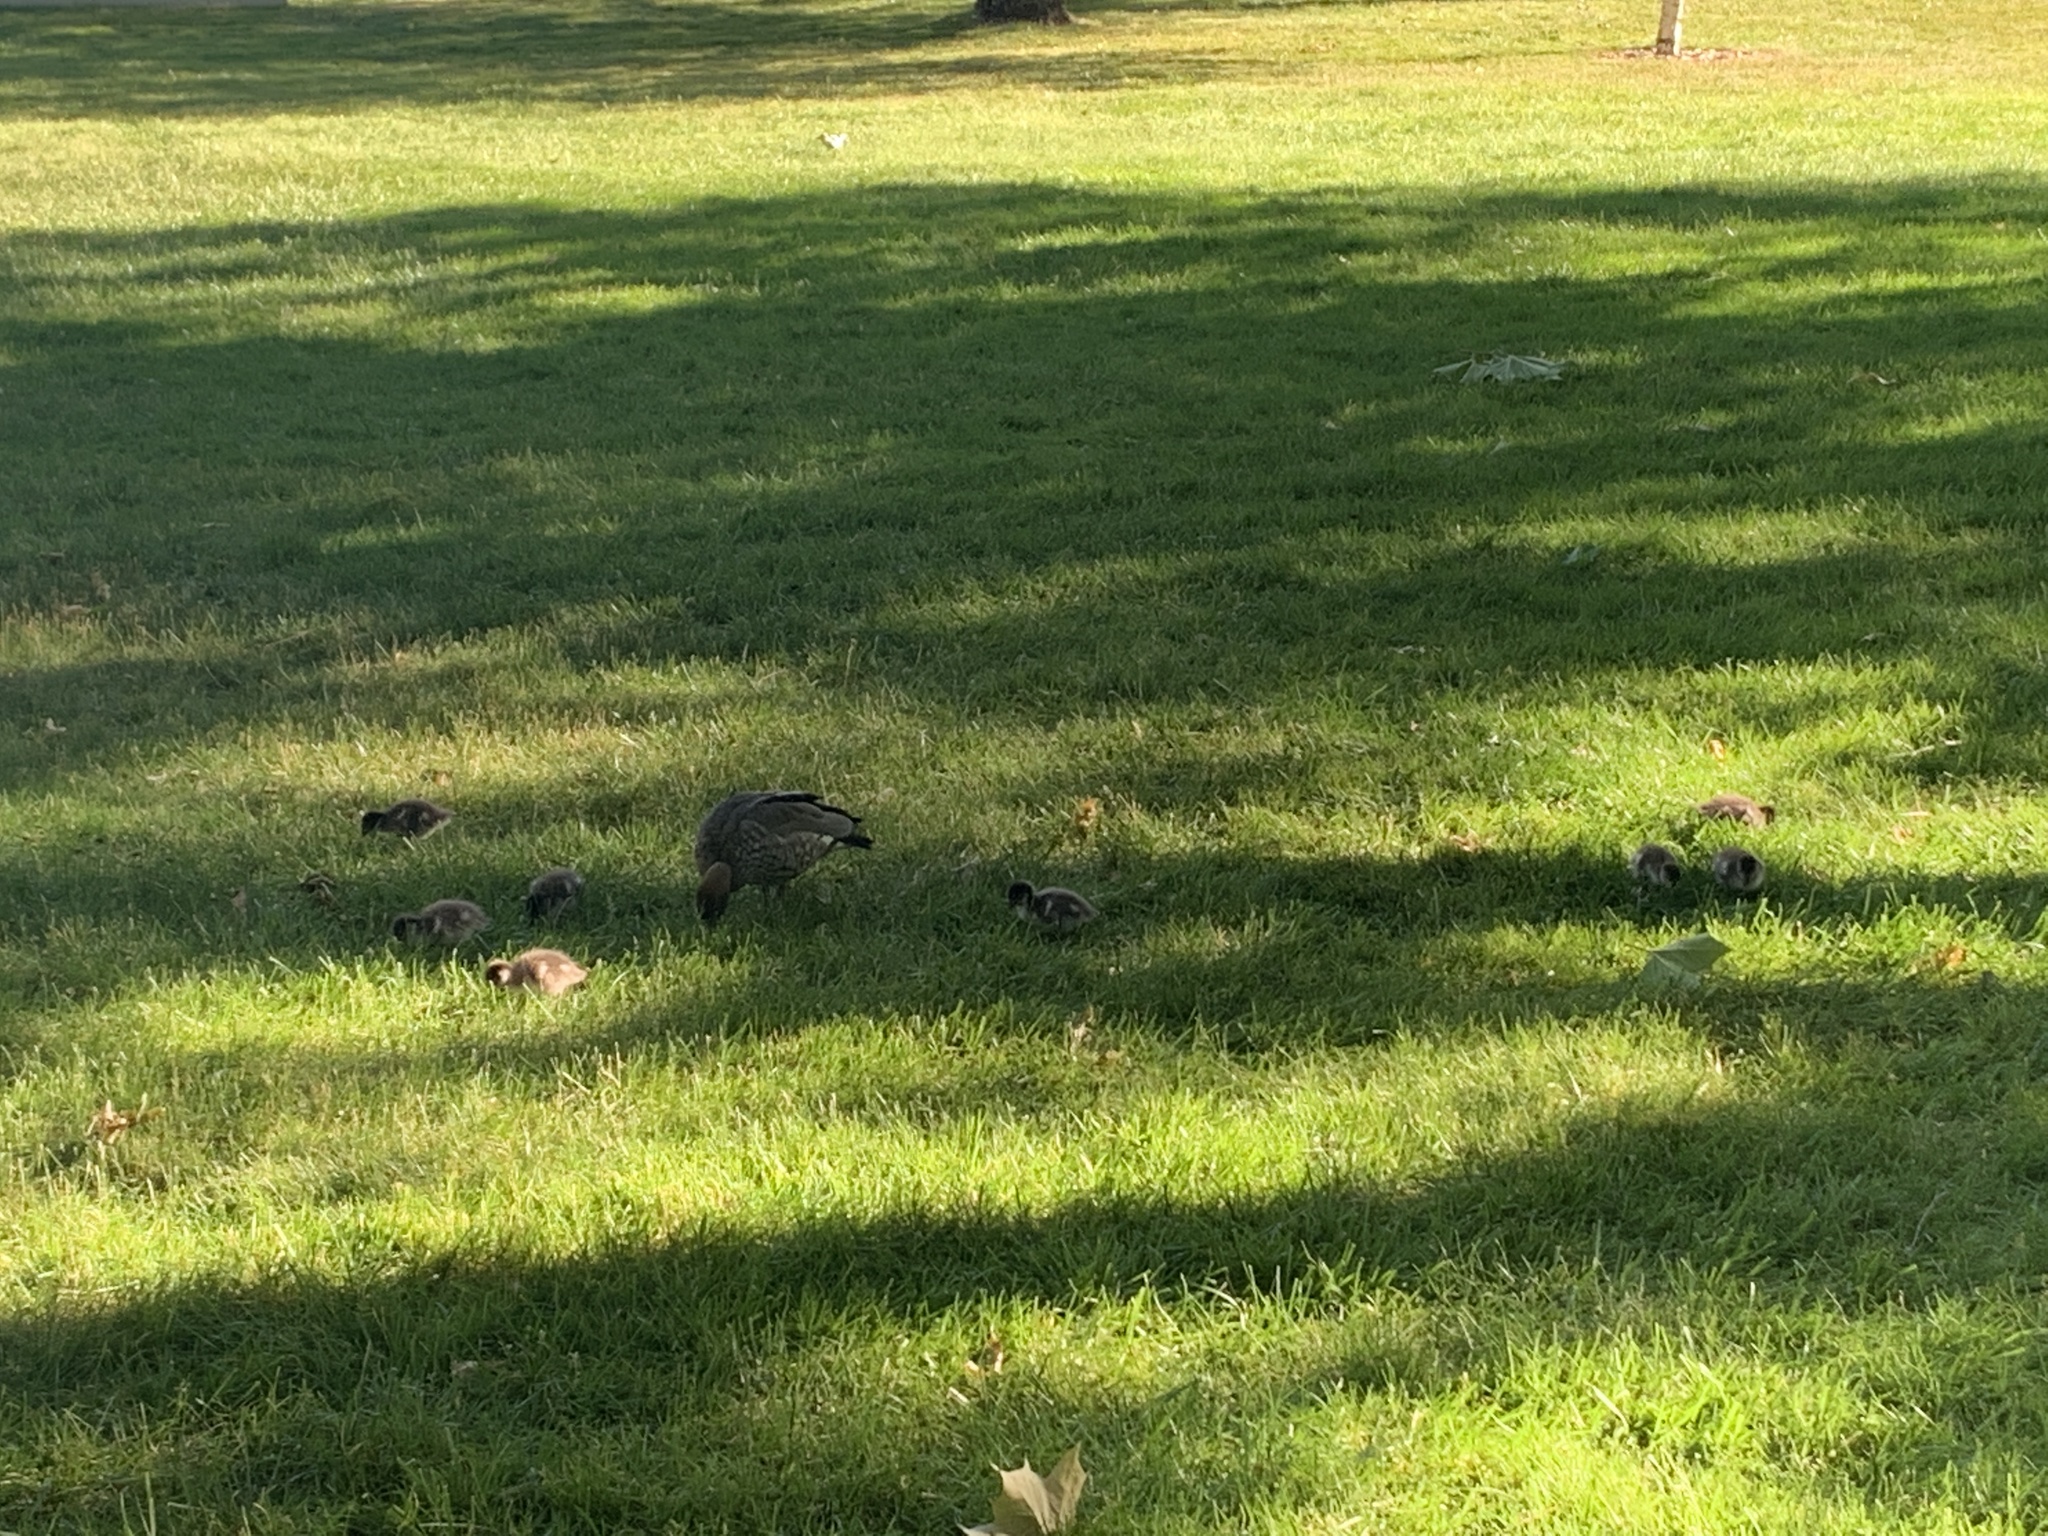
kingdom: Animalia
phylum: Chordata
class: Aves
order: Anseriformes
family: Anatidae
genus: Chenonetta
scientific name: Chenonetta jubata
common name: Maned duck
